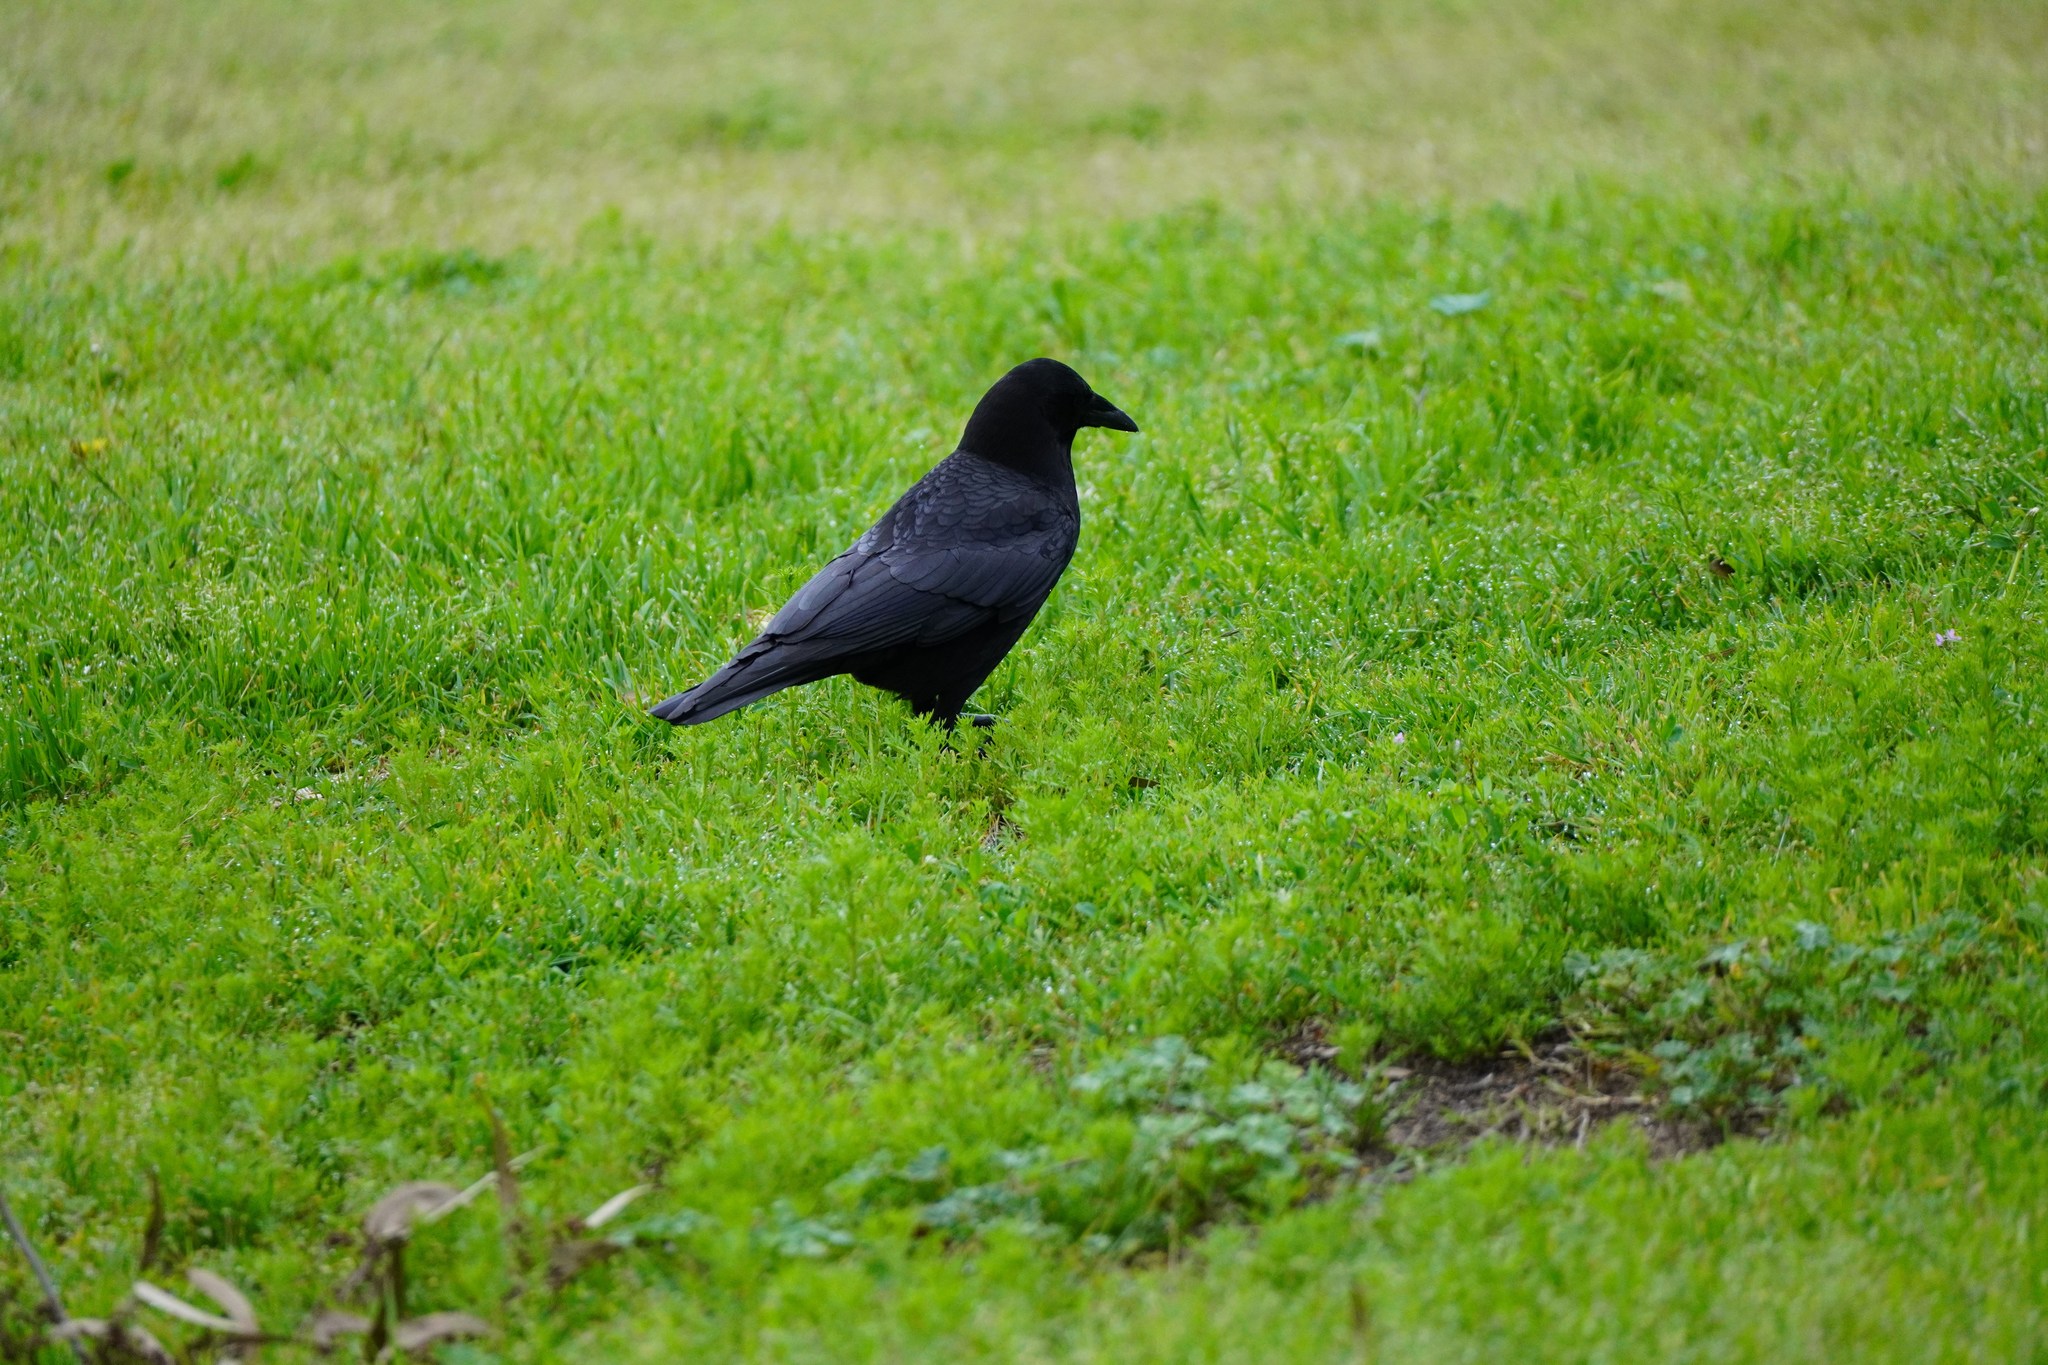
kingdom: Animalia
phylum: Chordata
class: Aves
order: Passeriformes
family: Corvidae
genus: Corvus
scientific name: Corvus brachyrhynchos
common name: American crow
